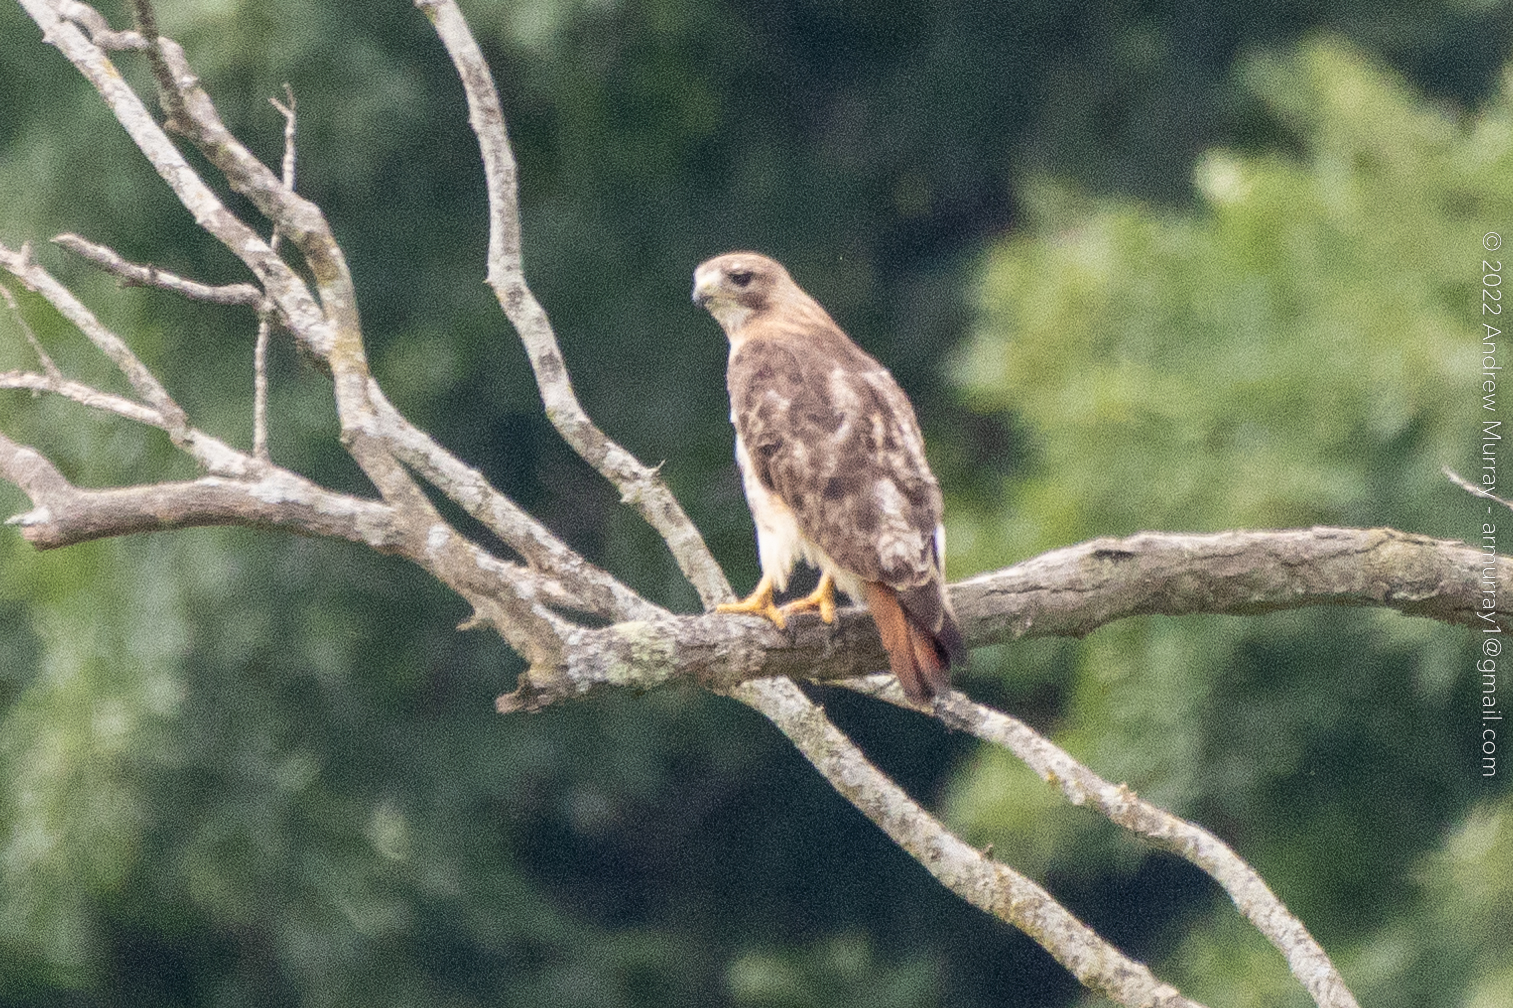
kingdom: Animalia
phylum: Chordata
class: Aves
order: Accipitriformes
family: Accipitridae
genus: Buteo
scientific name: Buteo jamaicensis
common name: Red-tailed hawk
